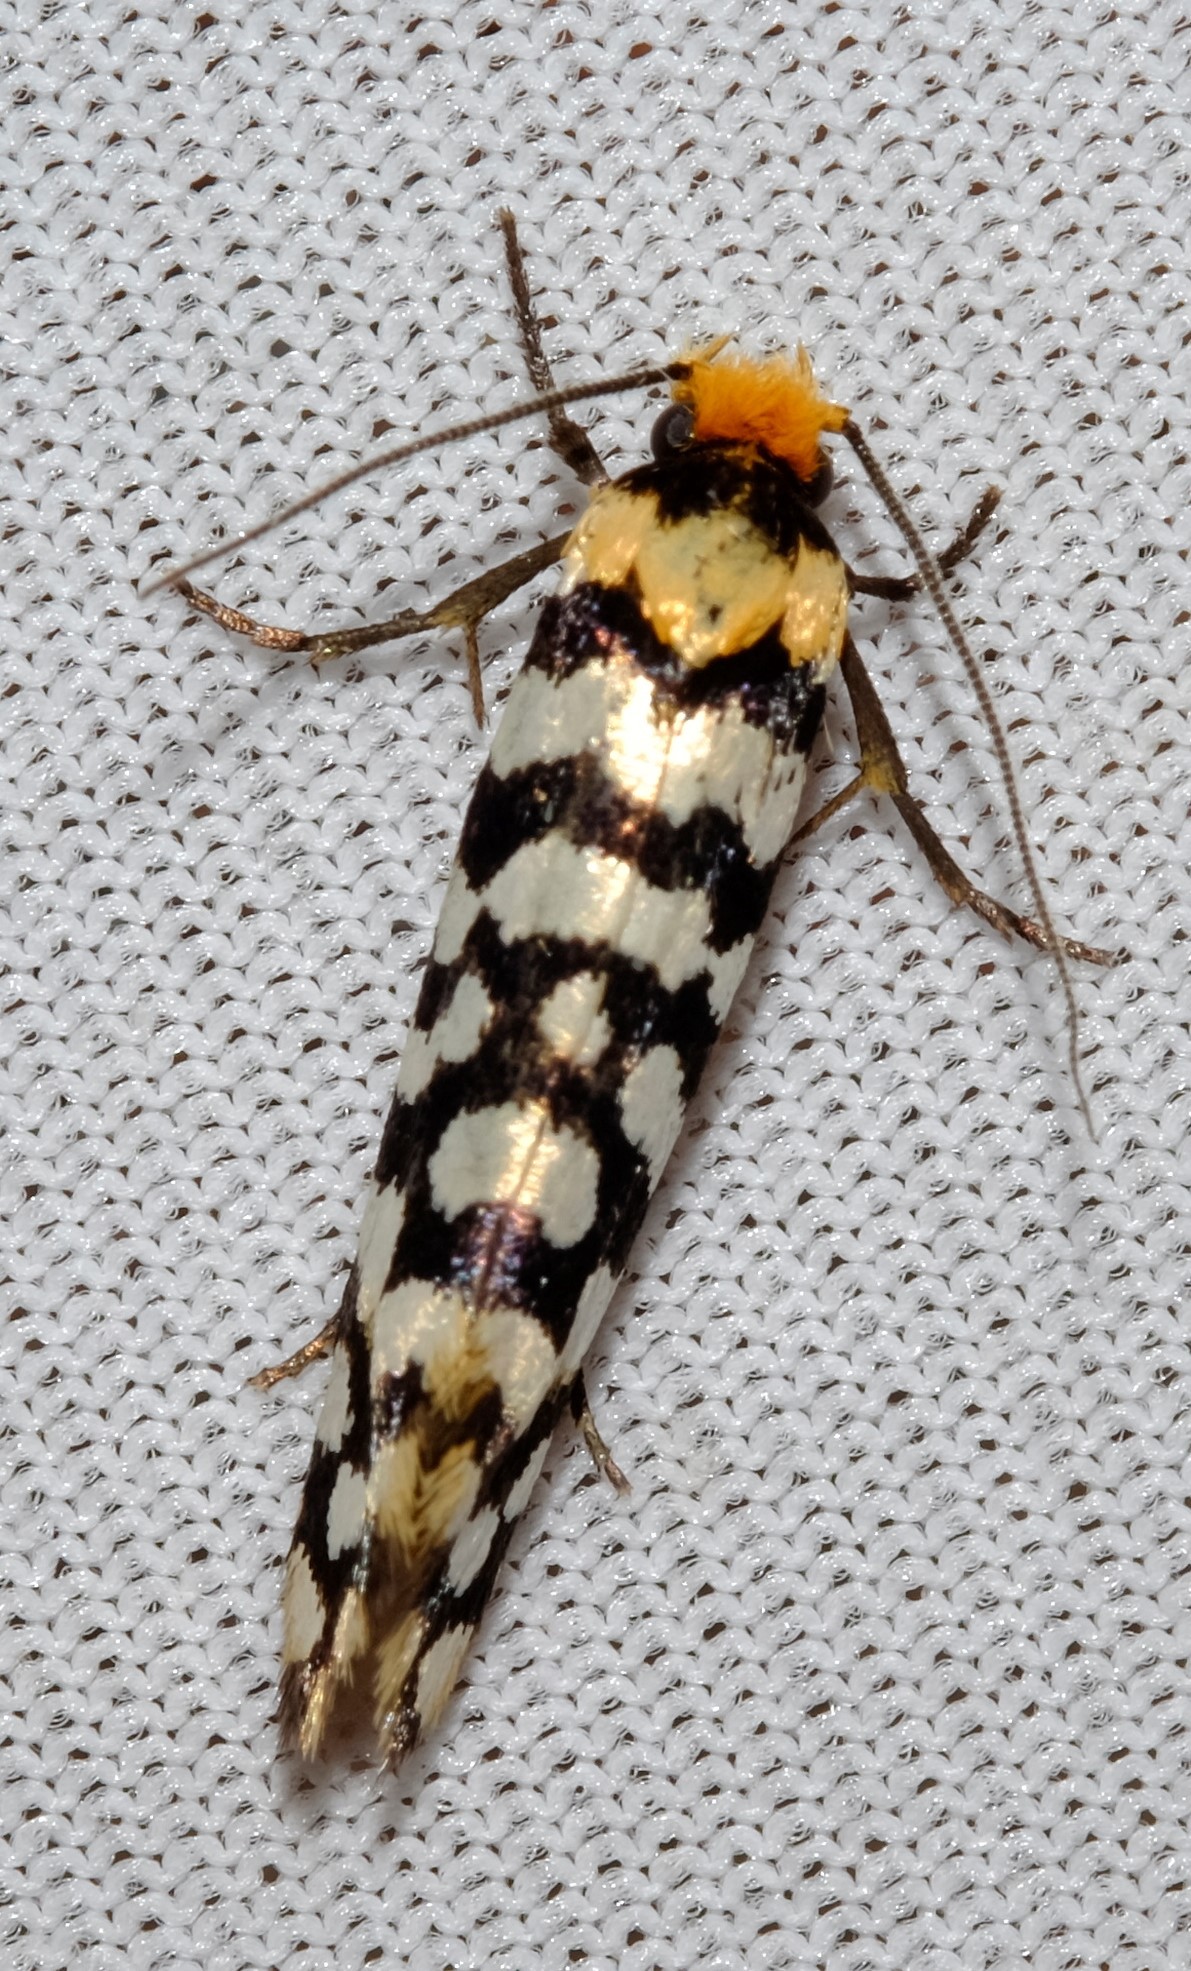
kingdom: Animalia
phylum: Arthropoda
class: Insecta
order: Lepidoptera
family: Tineidae
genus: Moerarchis
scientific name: Moerarchis australasiella
